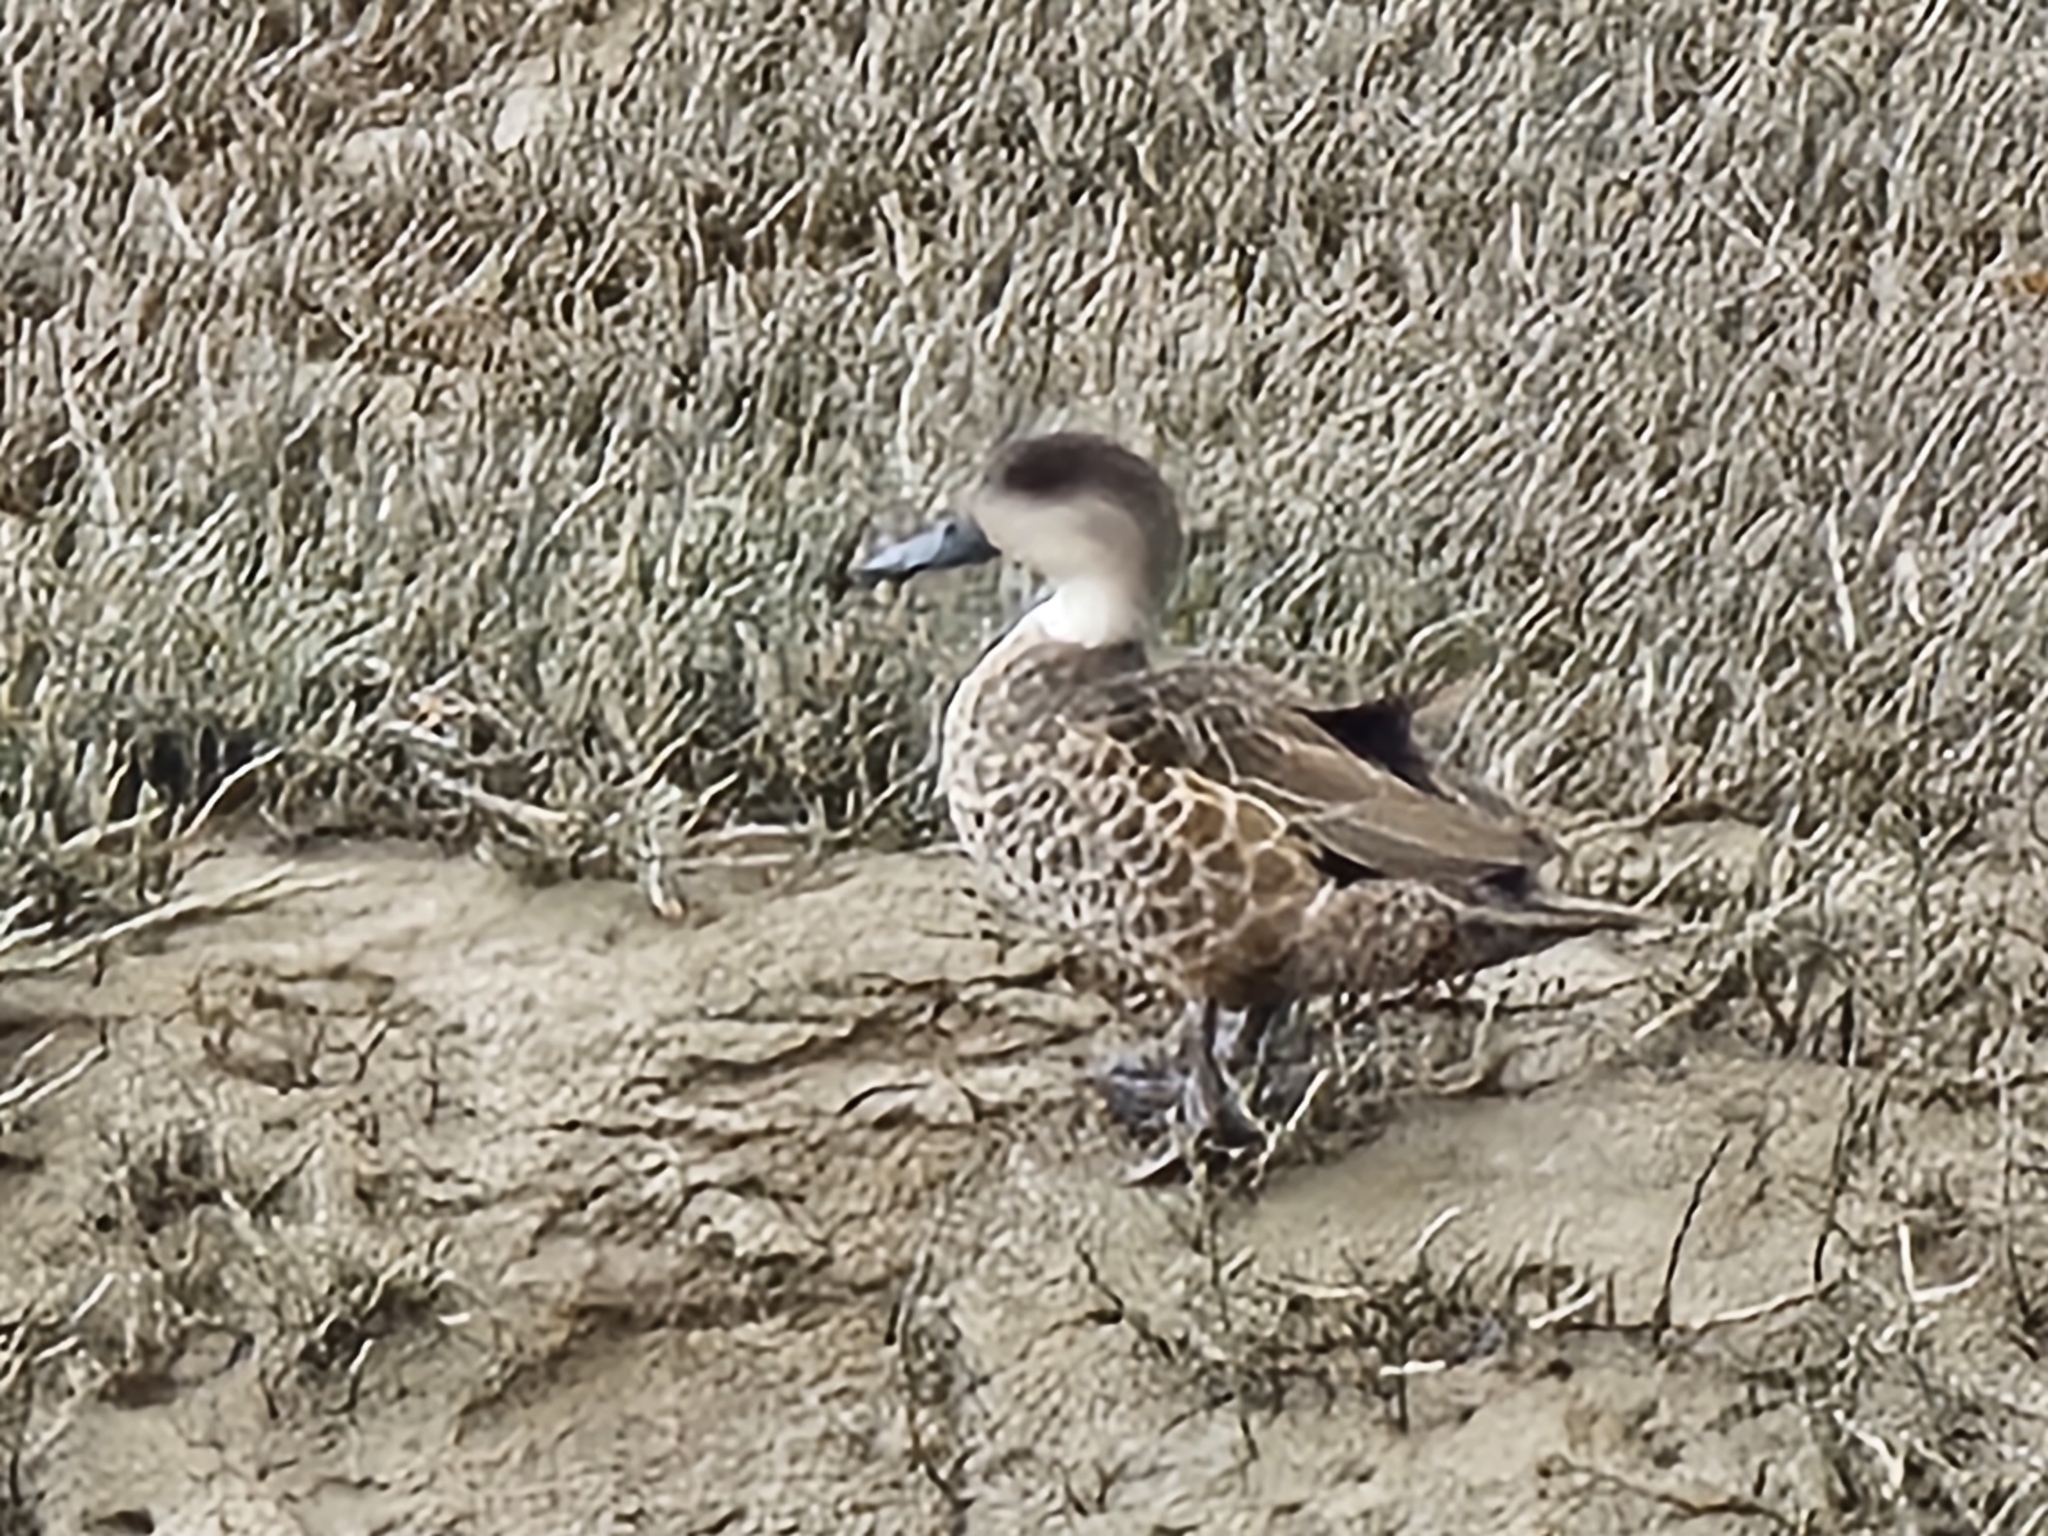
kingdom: Animalia
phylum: Chordata
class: Aves
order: Anseriformes
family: Anatidae
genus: Anas
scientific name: Anas gracilis
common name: Grey teal
